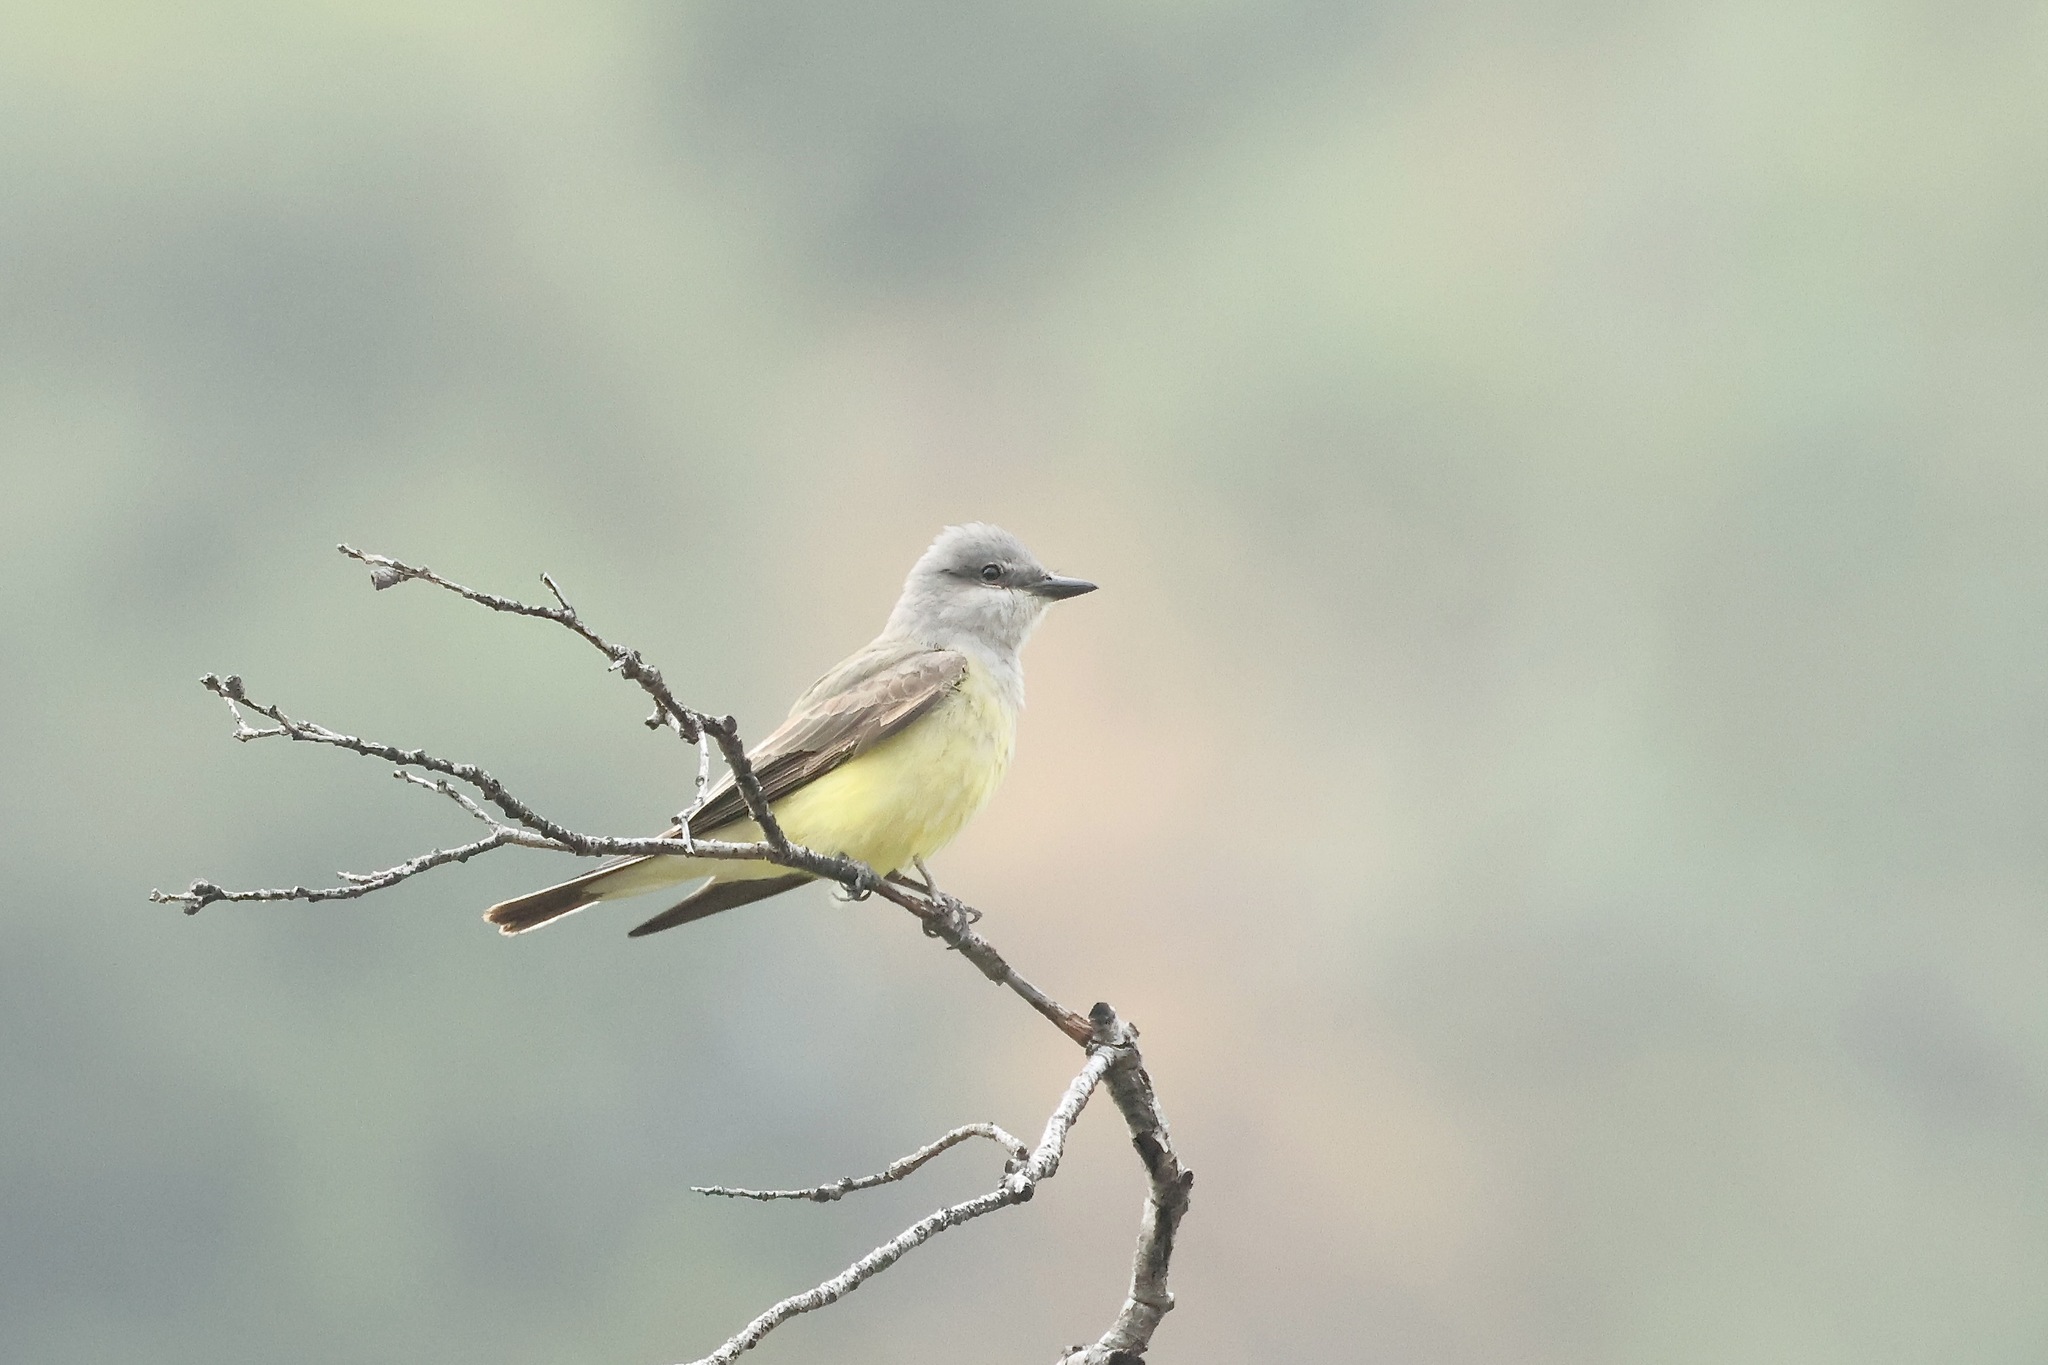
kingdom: Animalia
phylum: Chordata
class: Aves
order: Passeriformes
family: Tyrannidae
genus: Tyrannus
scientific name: Tyrannus verticalis
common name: Western kingbird
